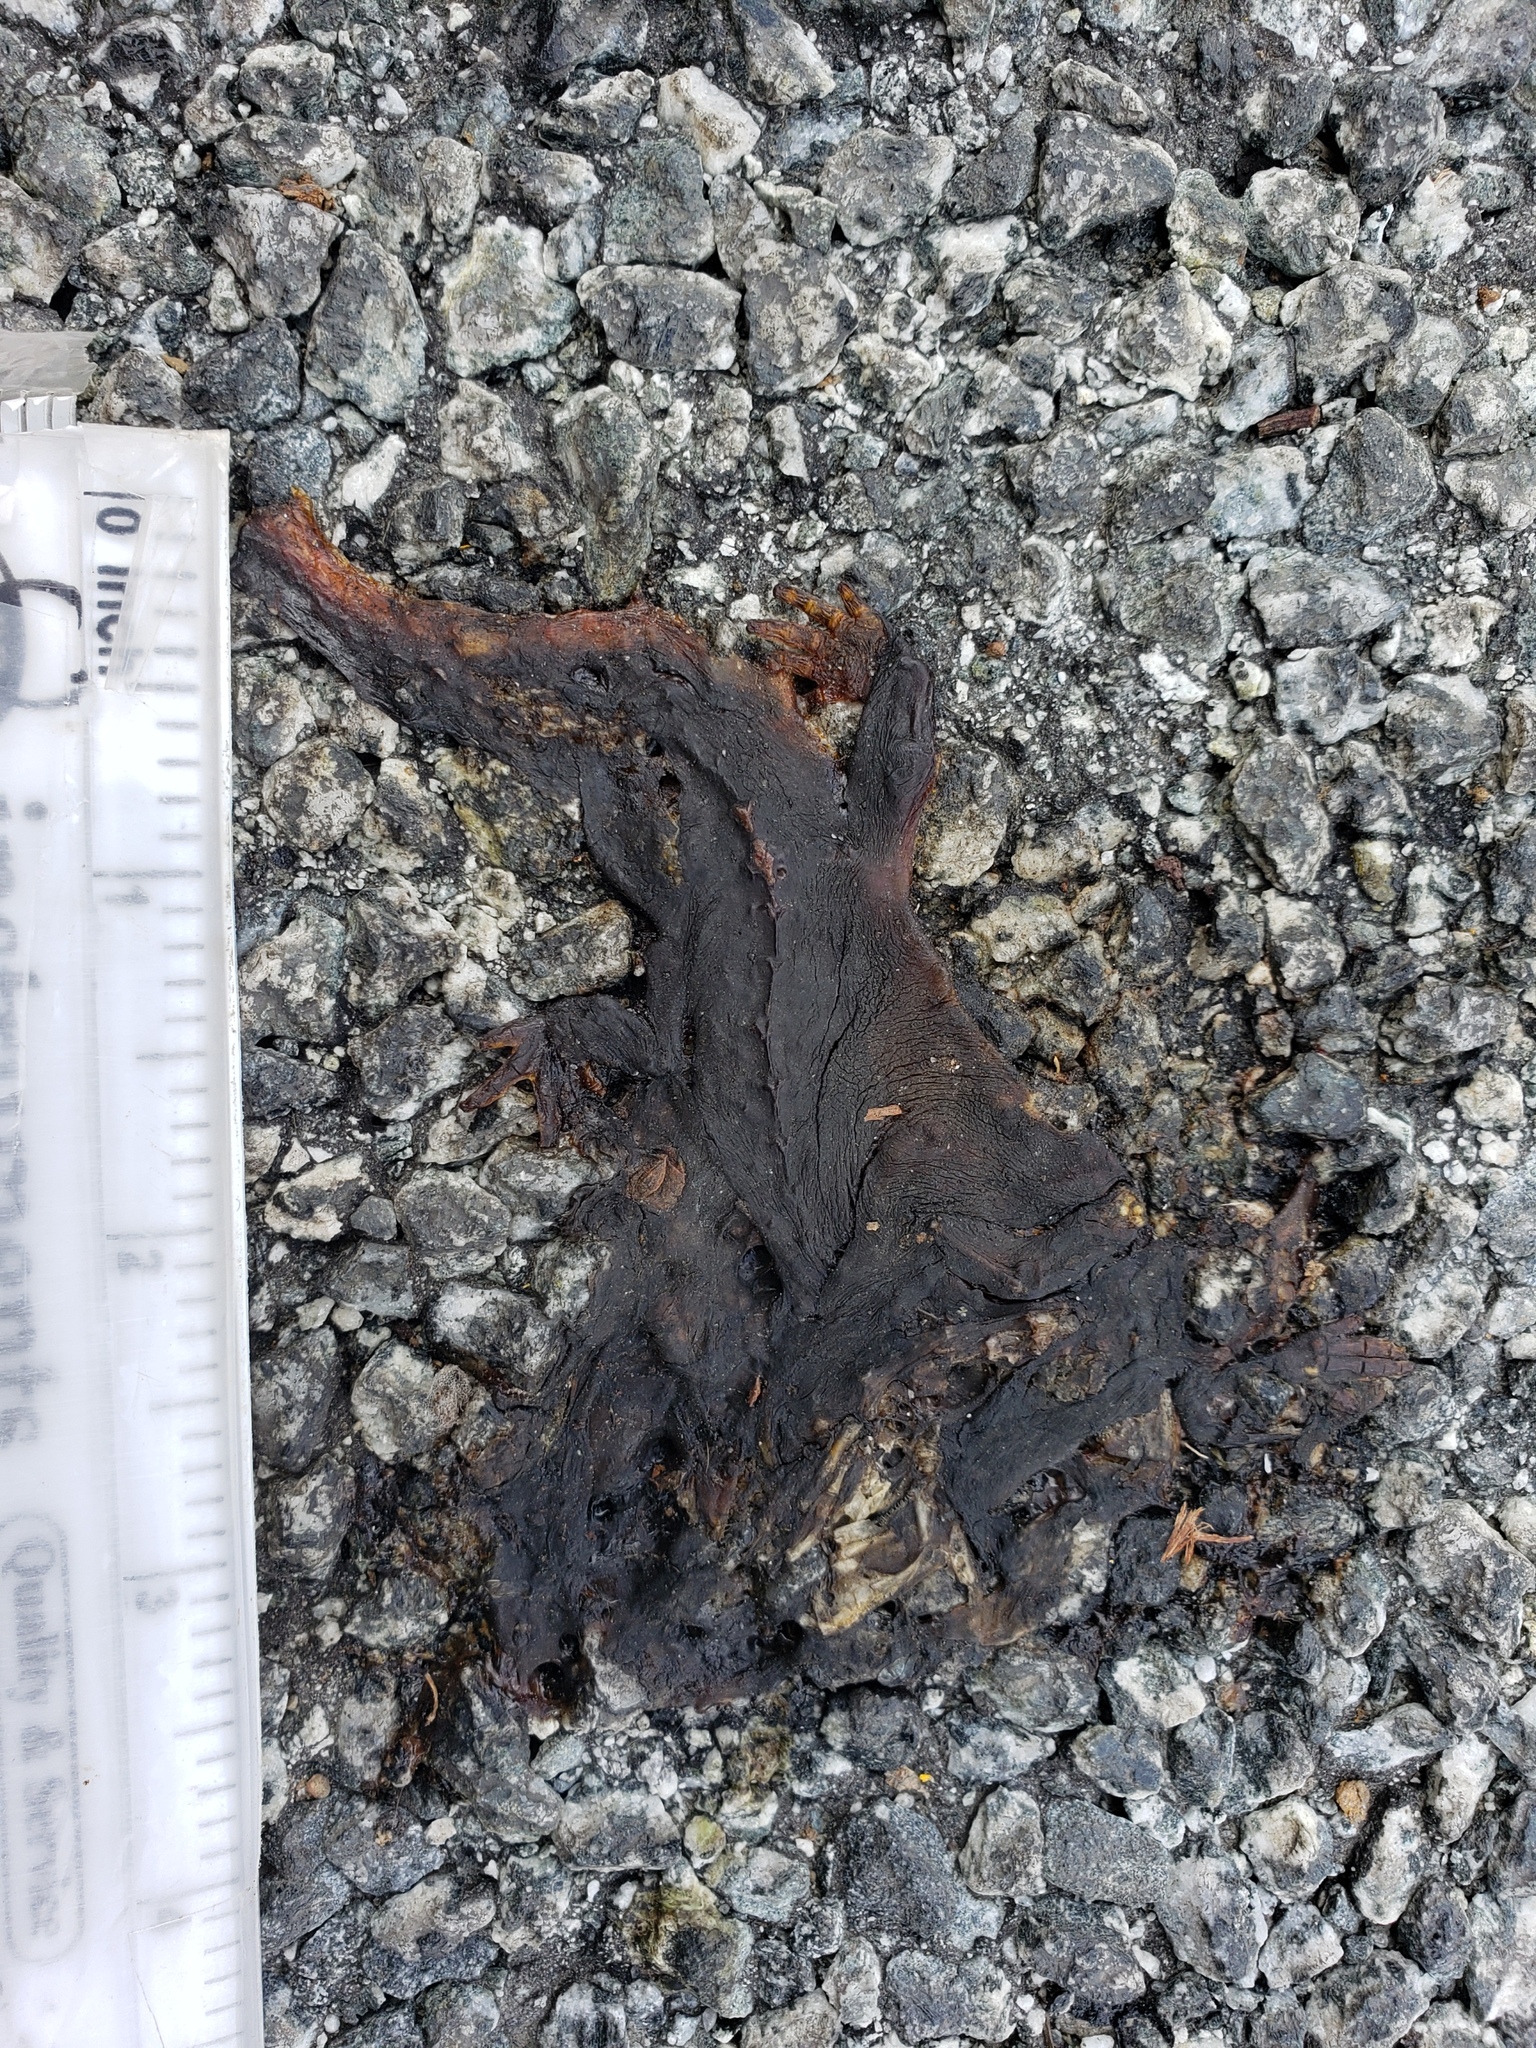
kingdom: Animalia
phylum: Chordata
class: Amphibia
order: Caudata
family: Salamandridae
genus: Taricha
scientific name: Taricha
